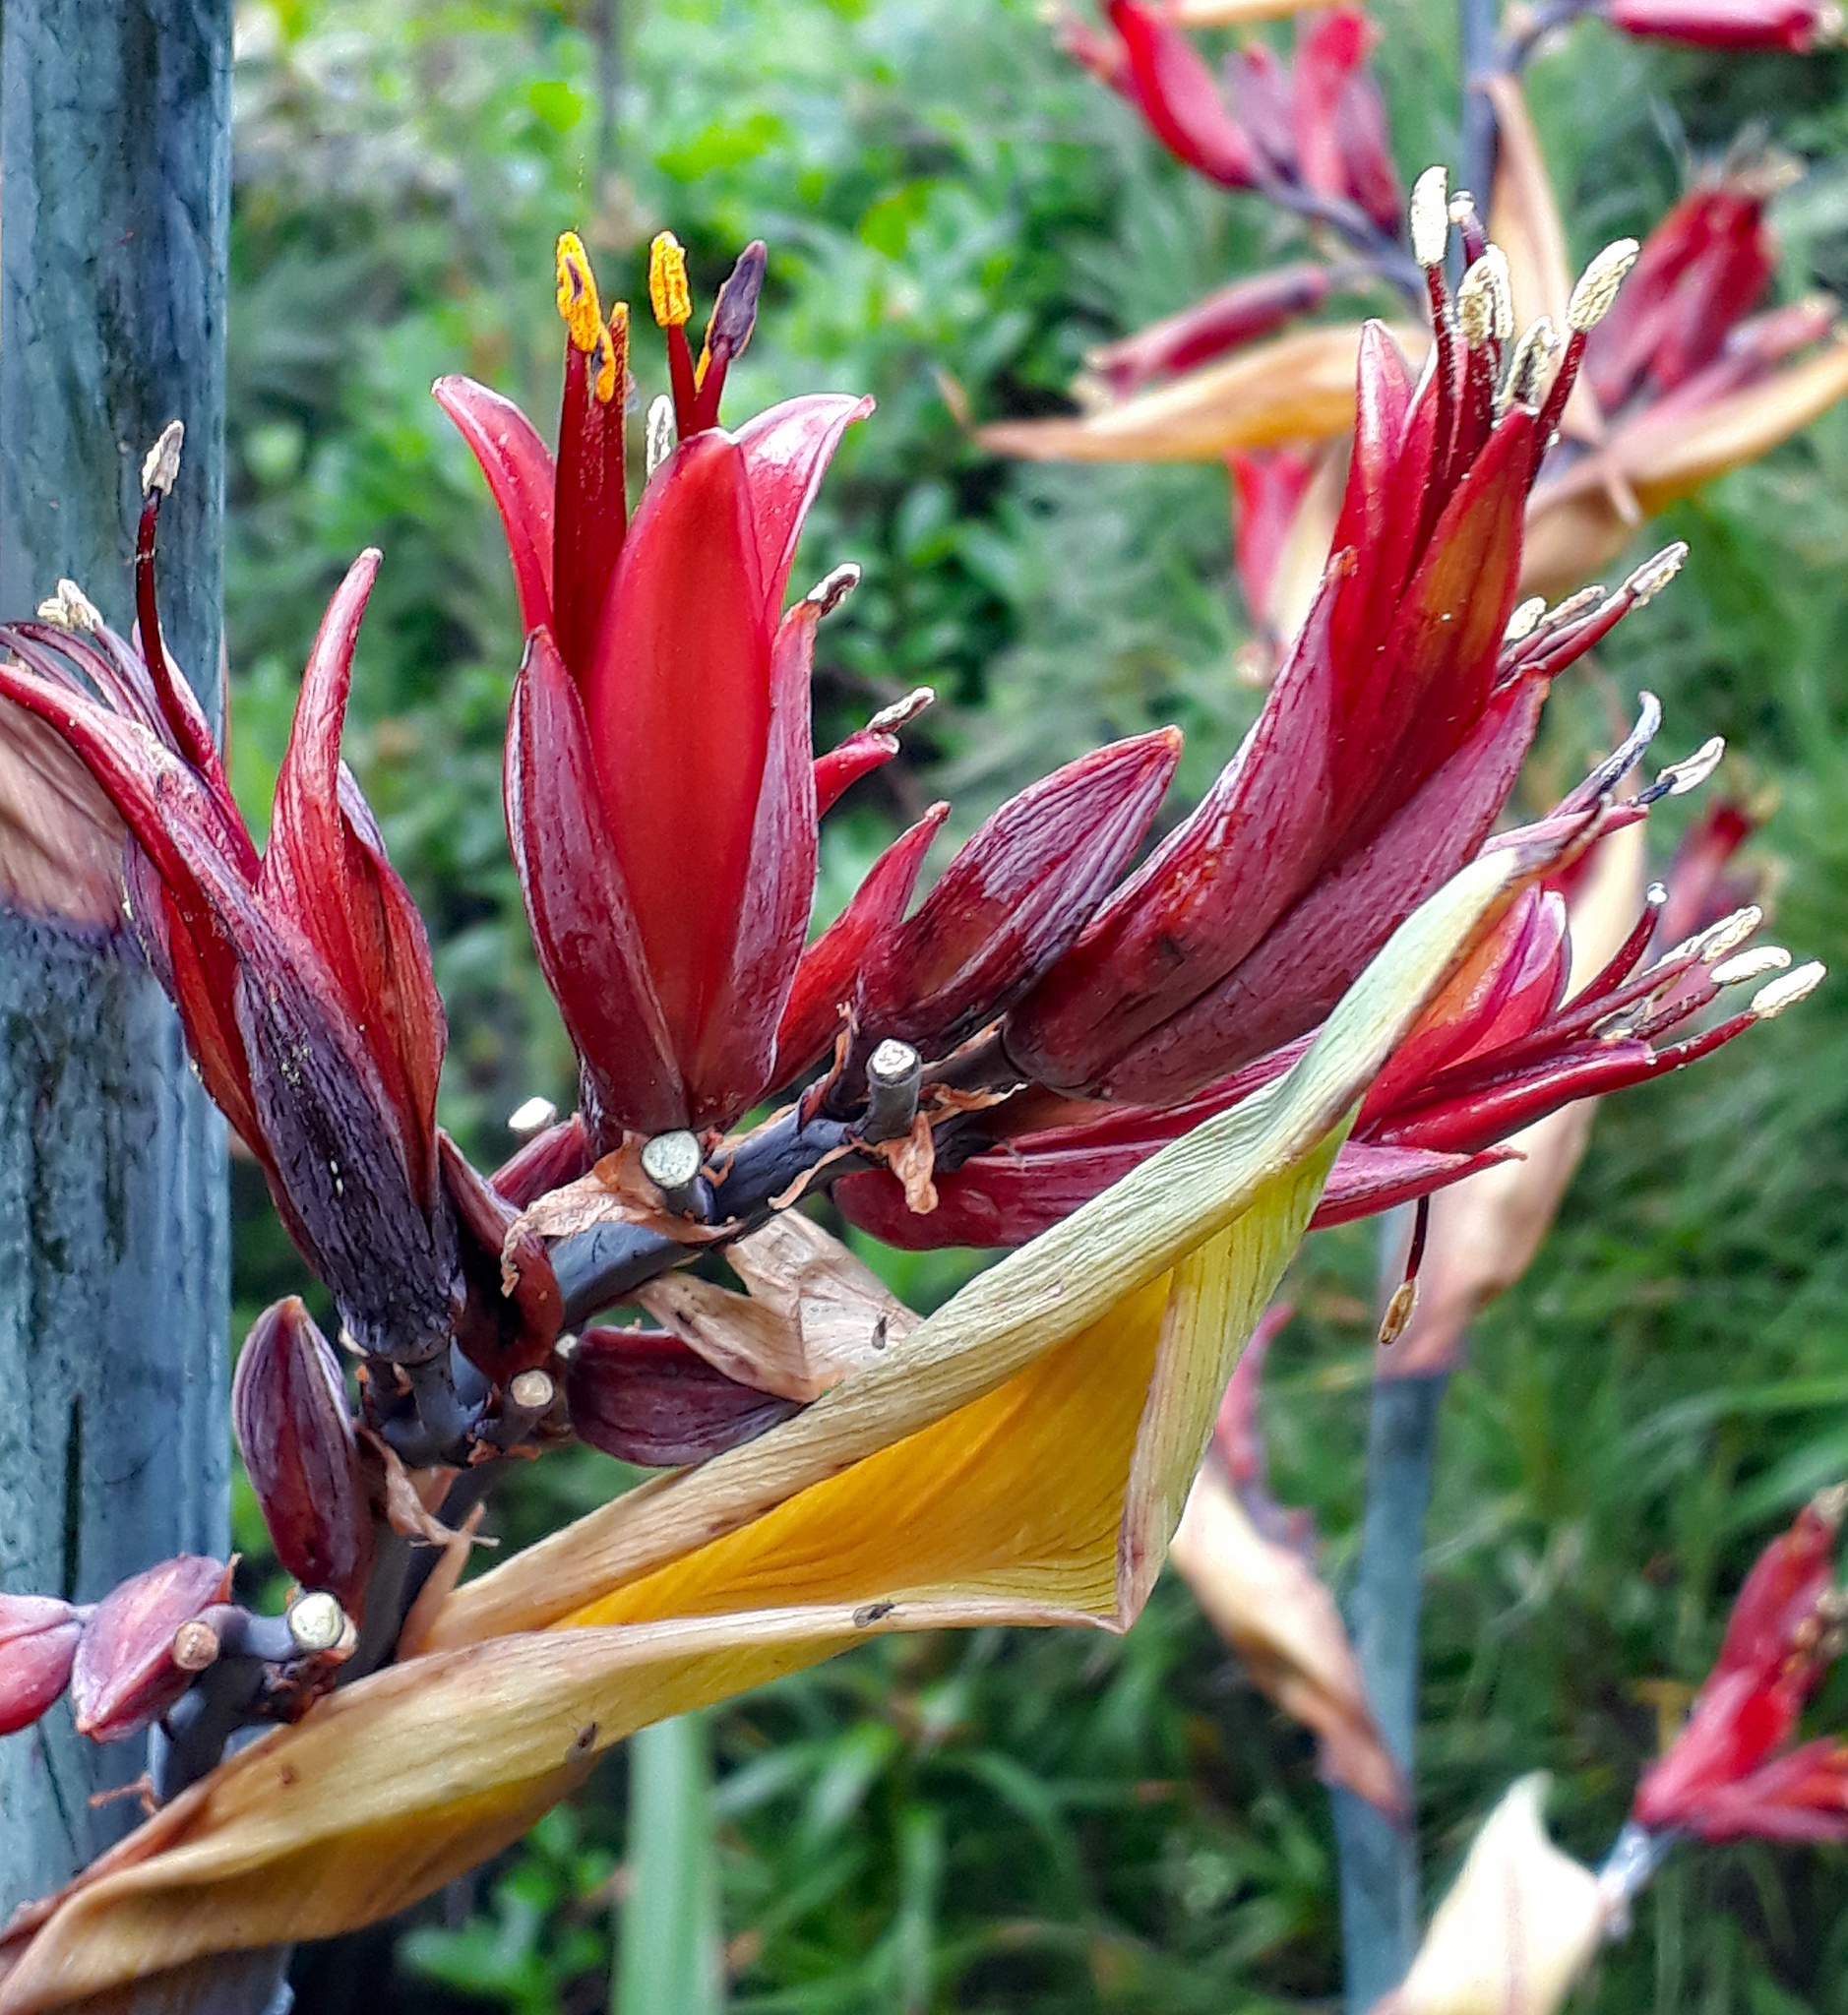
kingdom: Plantae
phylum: Tracheophyta
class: Liliopsida
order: Asparagales
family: Asphodelaceae
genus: Phormium
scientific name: Phormium tenax
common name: New zealand flax
